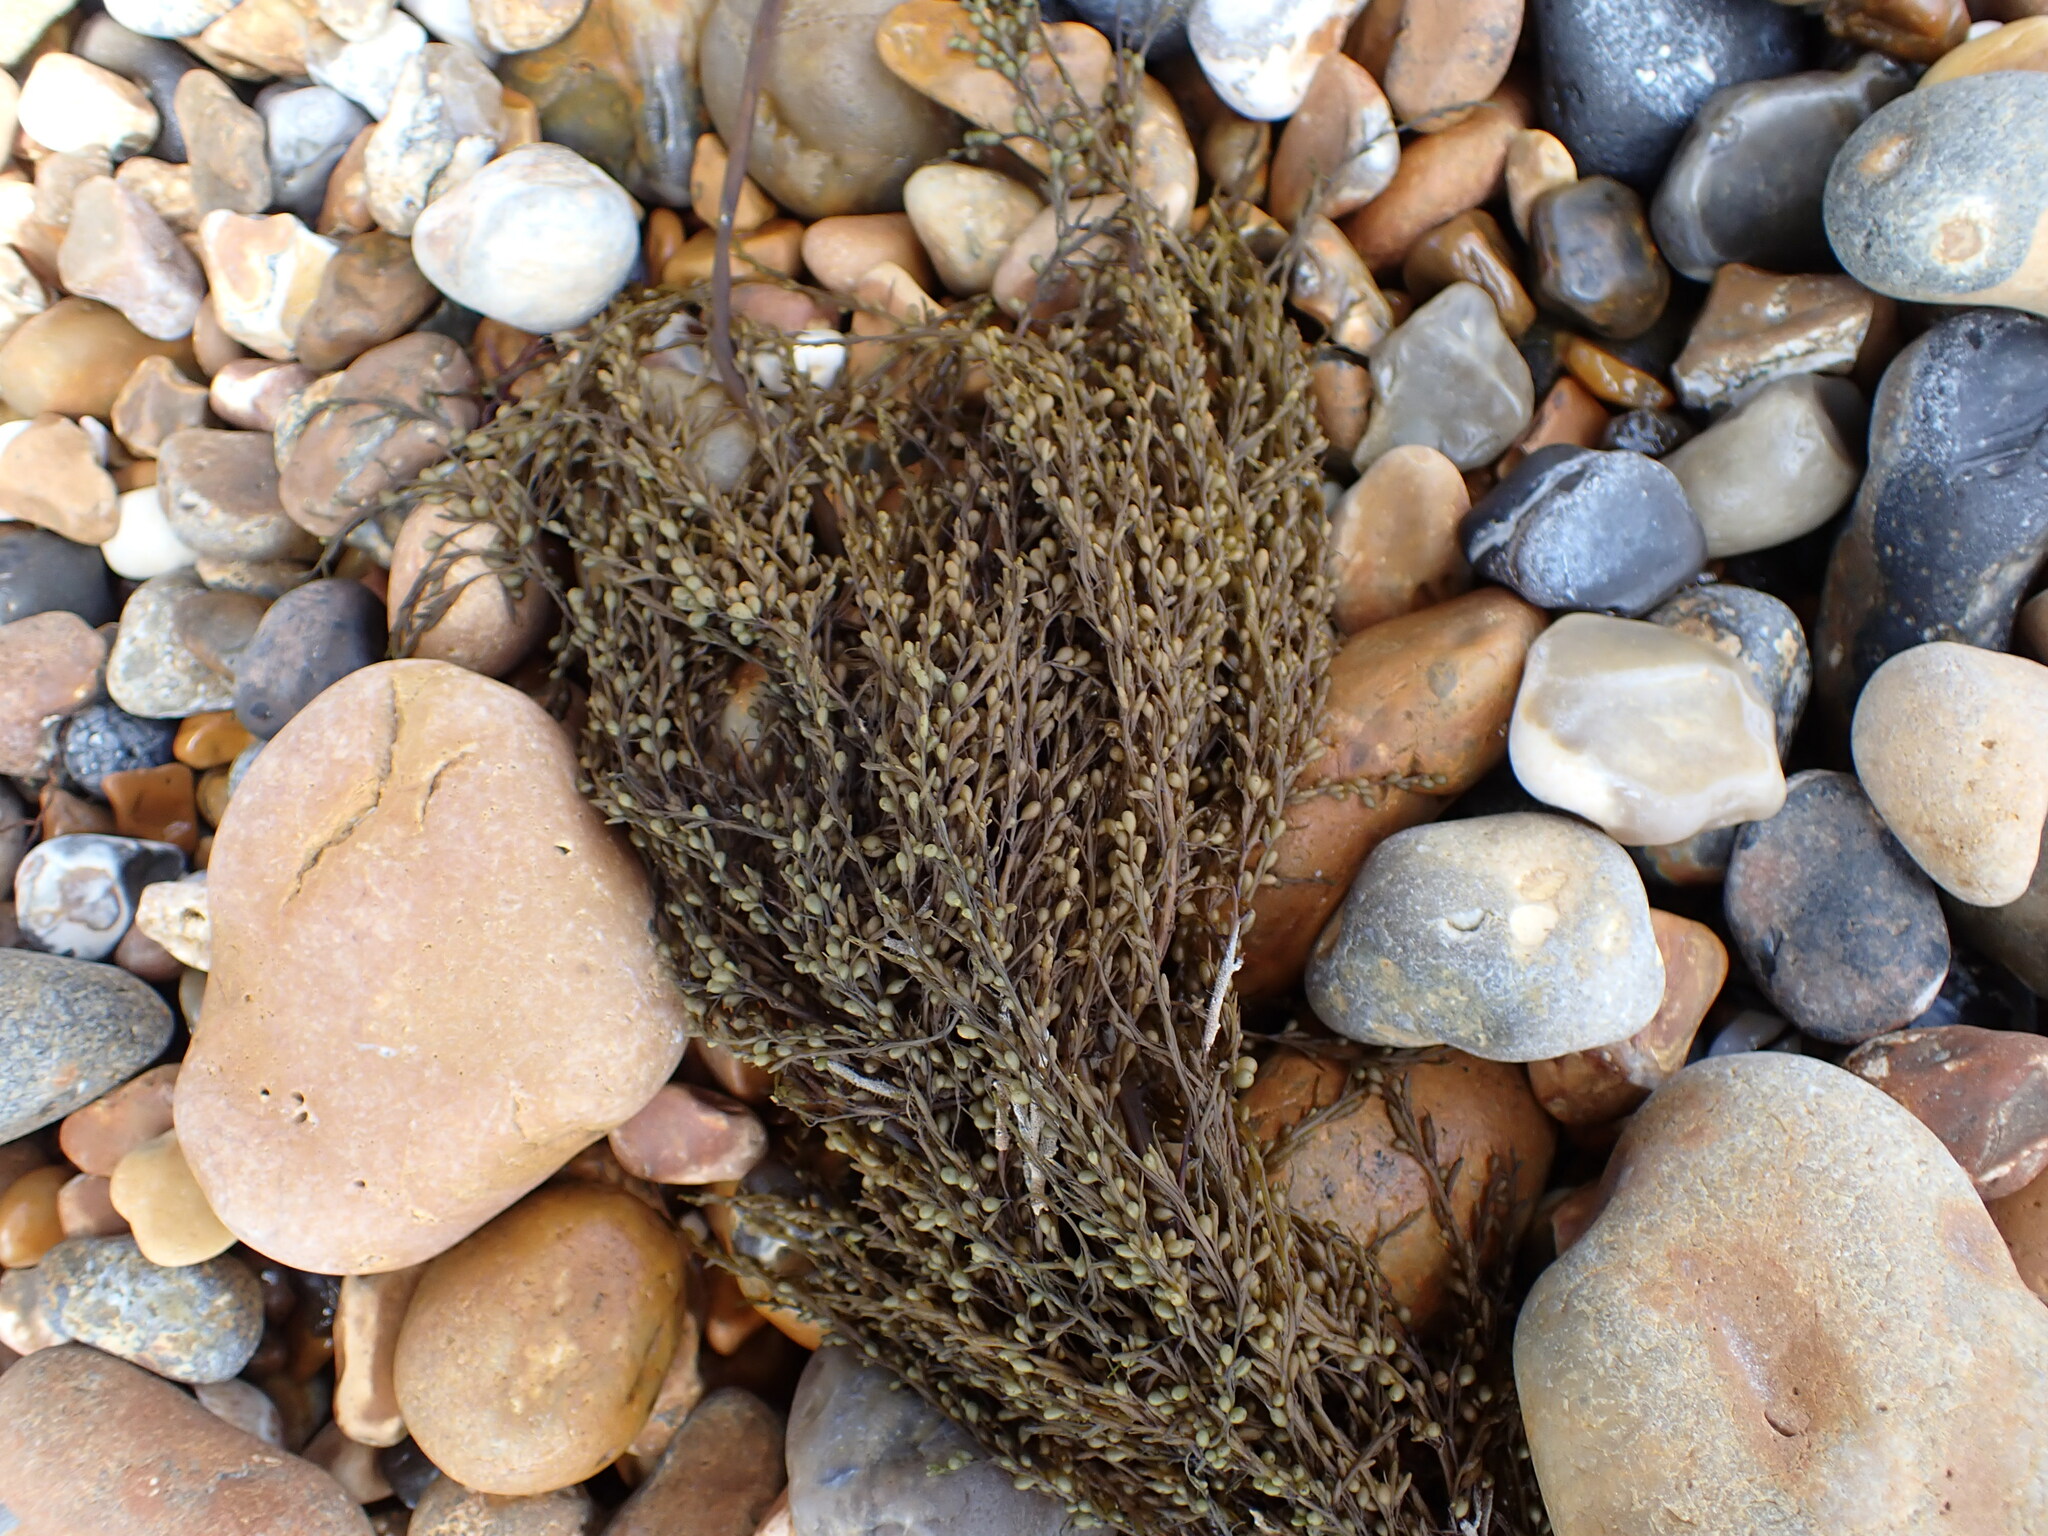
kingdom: Chromista
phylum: Ochrophyta
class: Phaeophyceae
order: Fucales
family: Sargassaceae
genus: Sargassum
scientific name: Sargassum muticum
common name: Japweed
